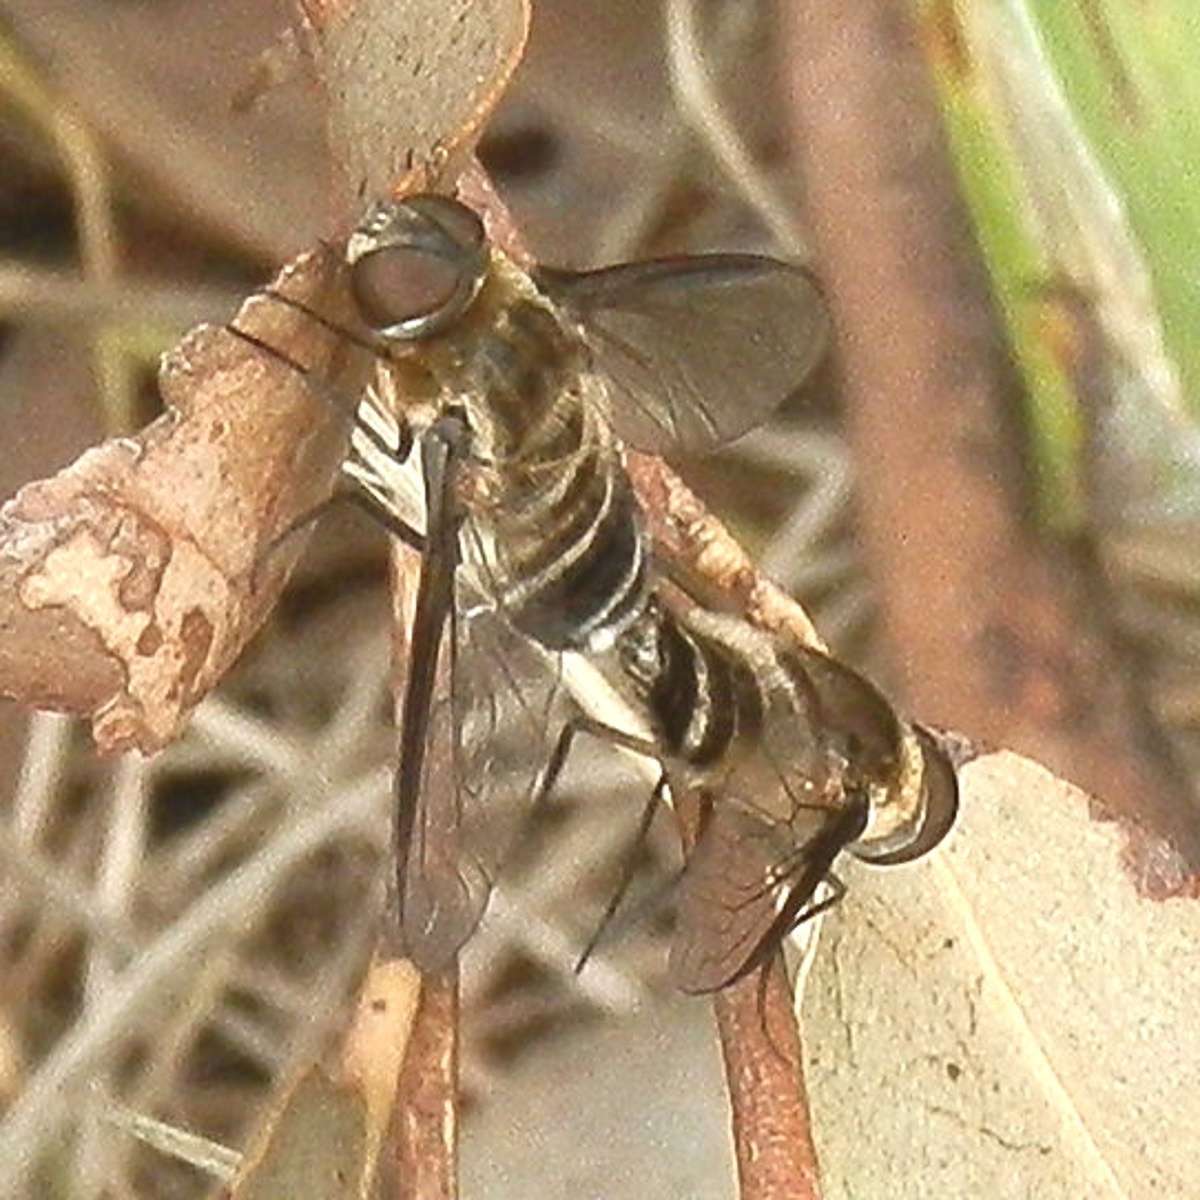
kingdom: Animalia
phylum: Arthropoda
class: Insecta
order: Diptera
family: Bombyliidae
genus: Villa
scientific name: Villa
